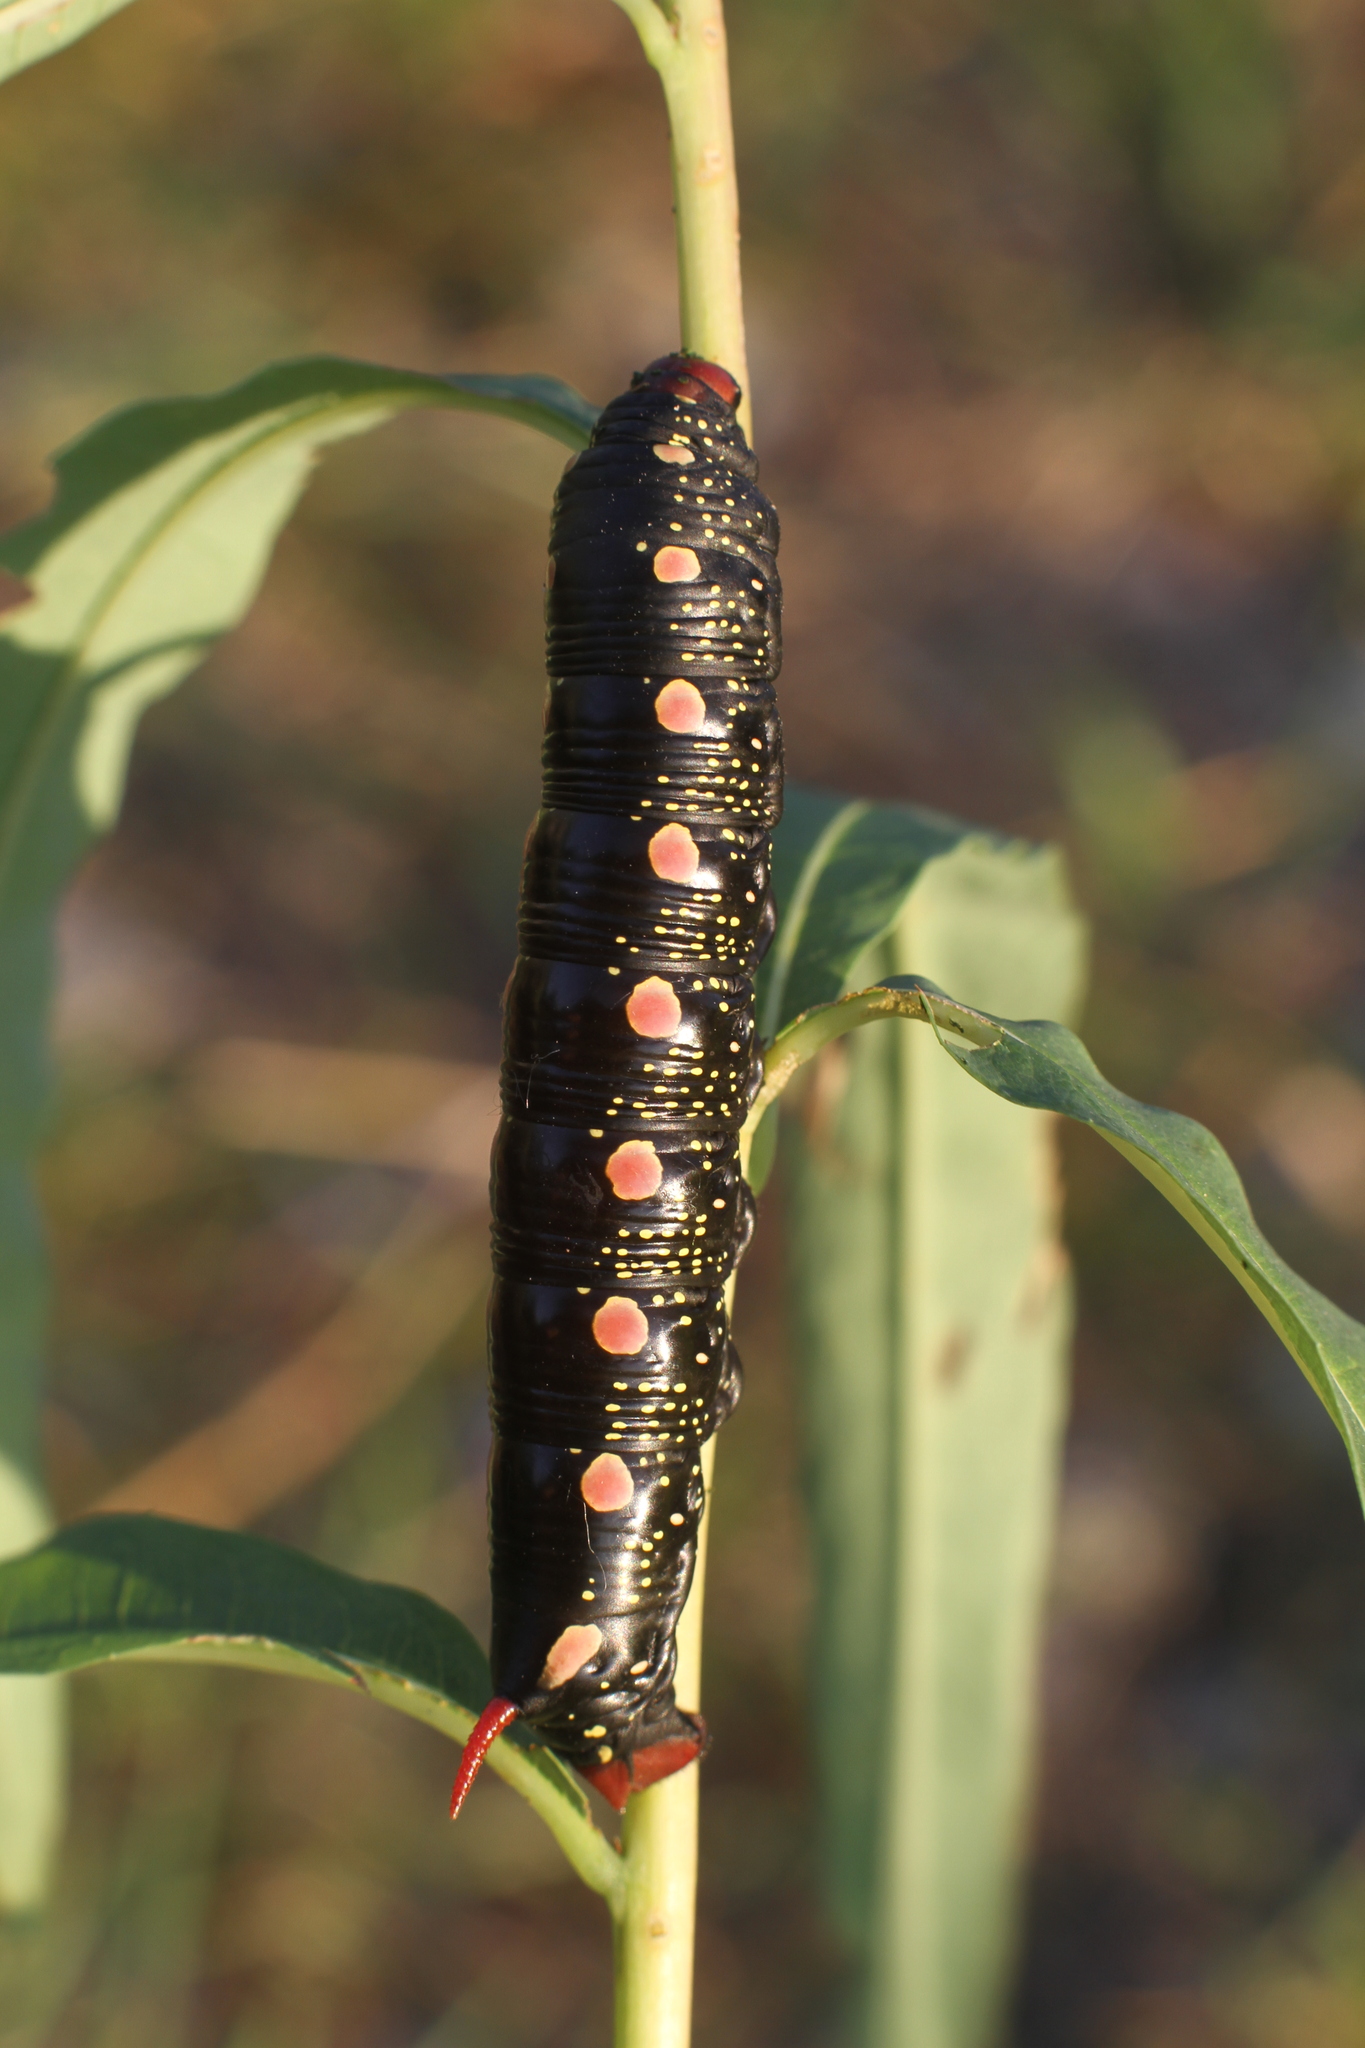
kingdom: Animalia
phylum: Arthropoda
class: Insecta
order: Lepidoptera
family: Sphingidae
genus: Hyles
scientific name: Hyles gallii
